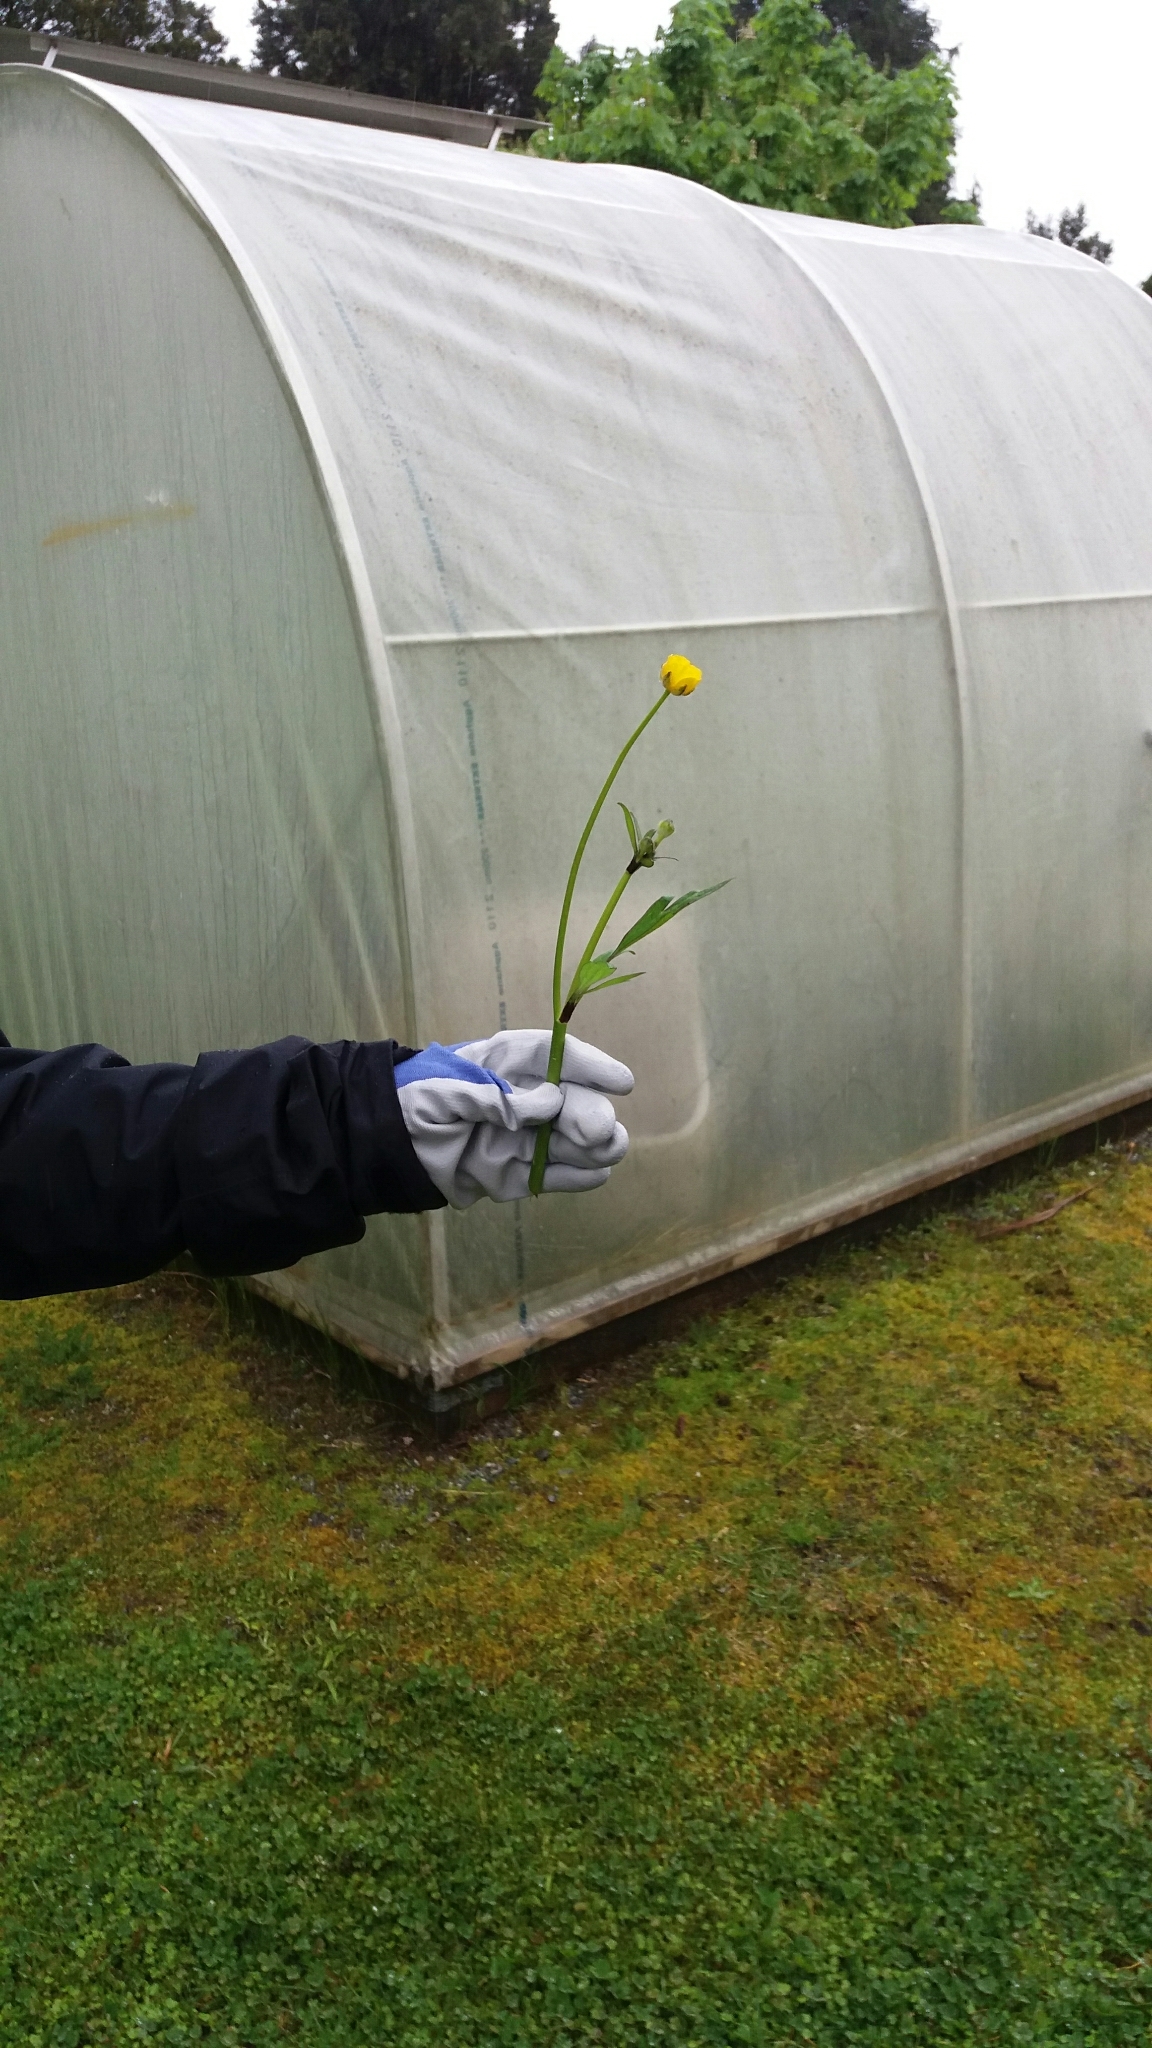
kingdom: Plantae
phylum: Tracheophyta
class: Magnoliopsida
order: Ranunculales
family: Ranunculaceae
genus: Ranunculus
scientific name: Ranunculus repens
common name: Creeping buttercup
